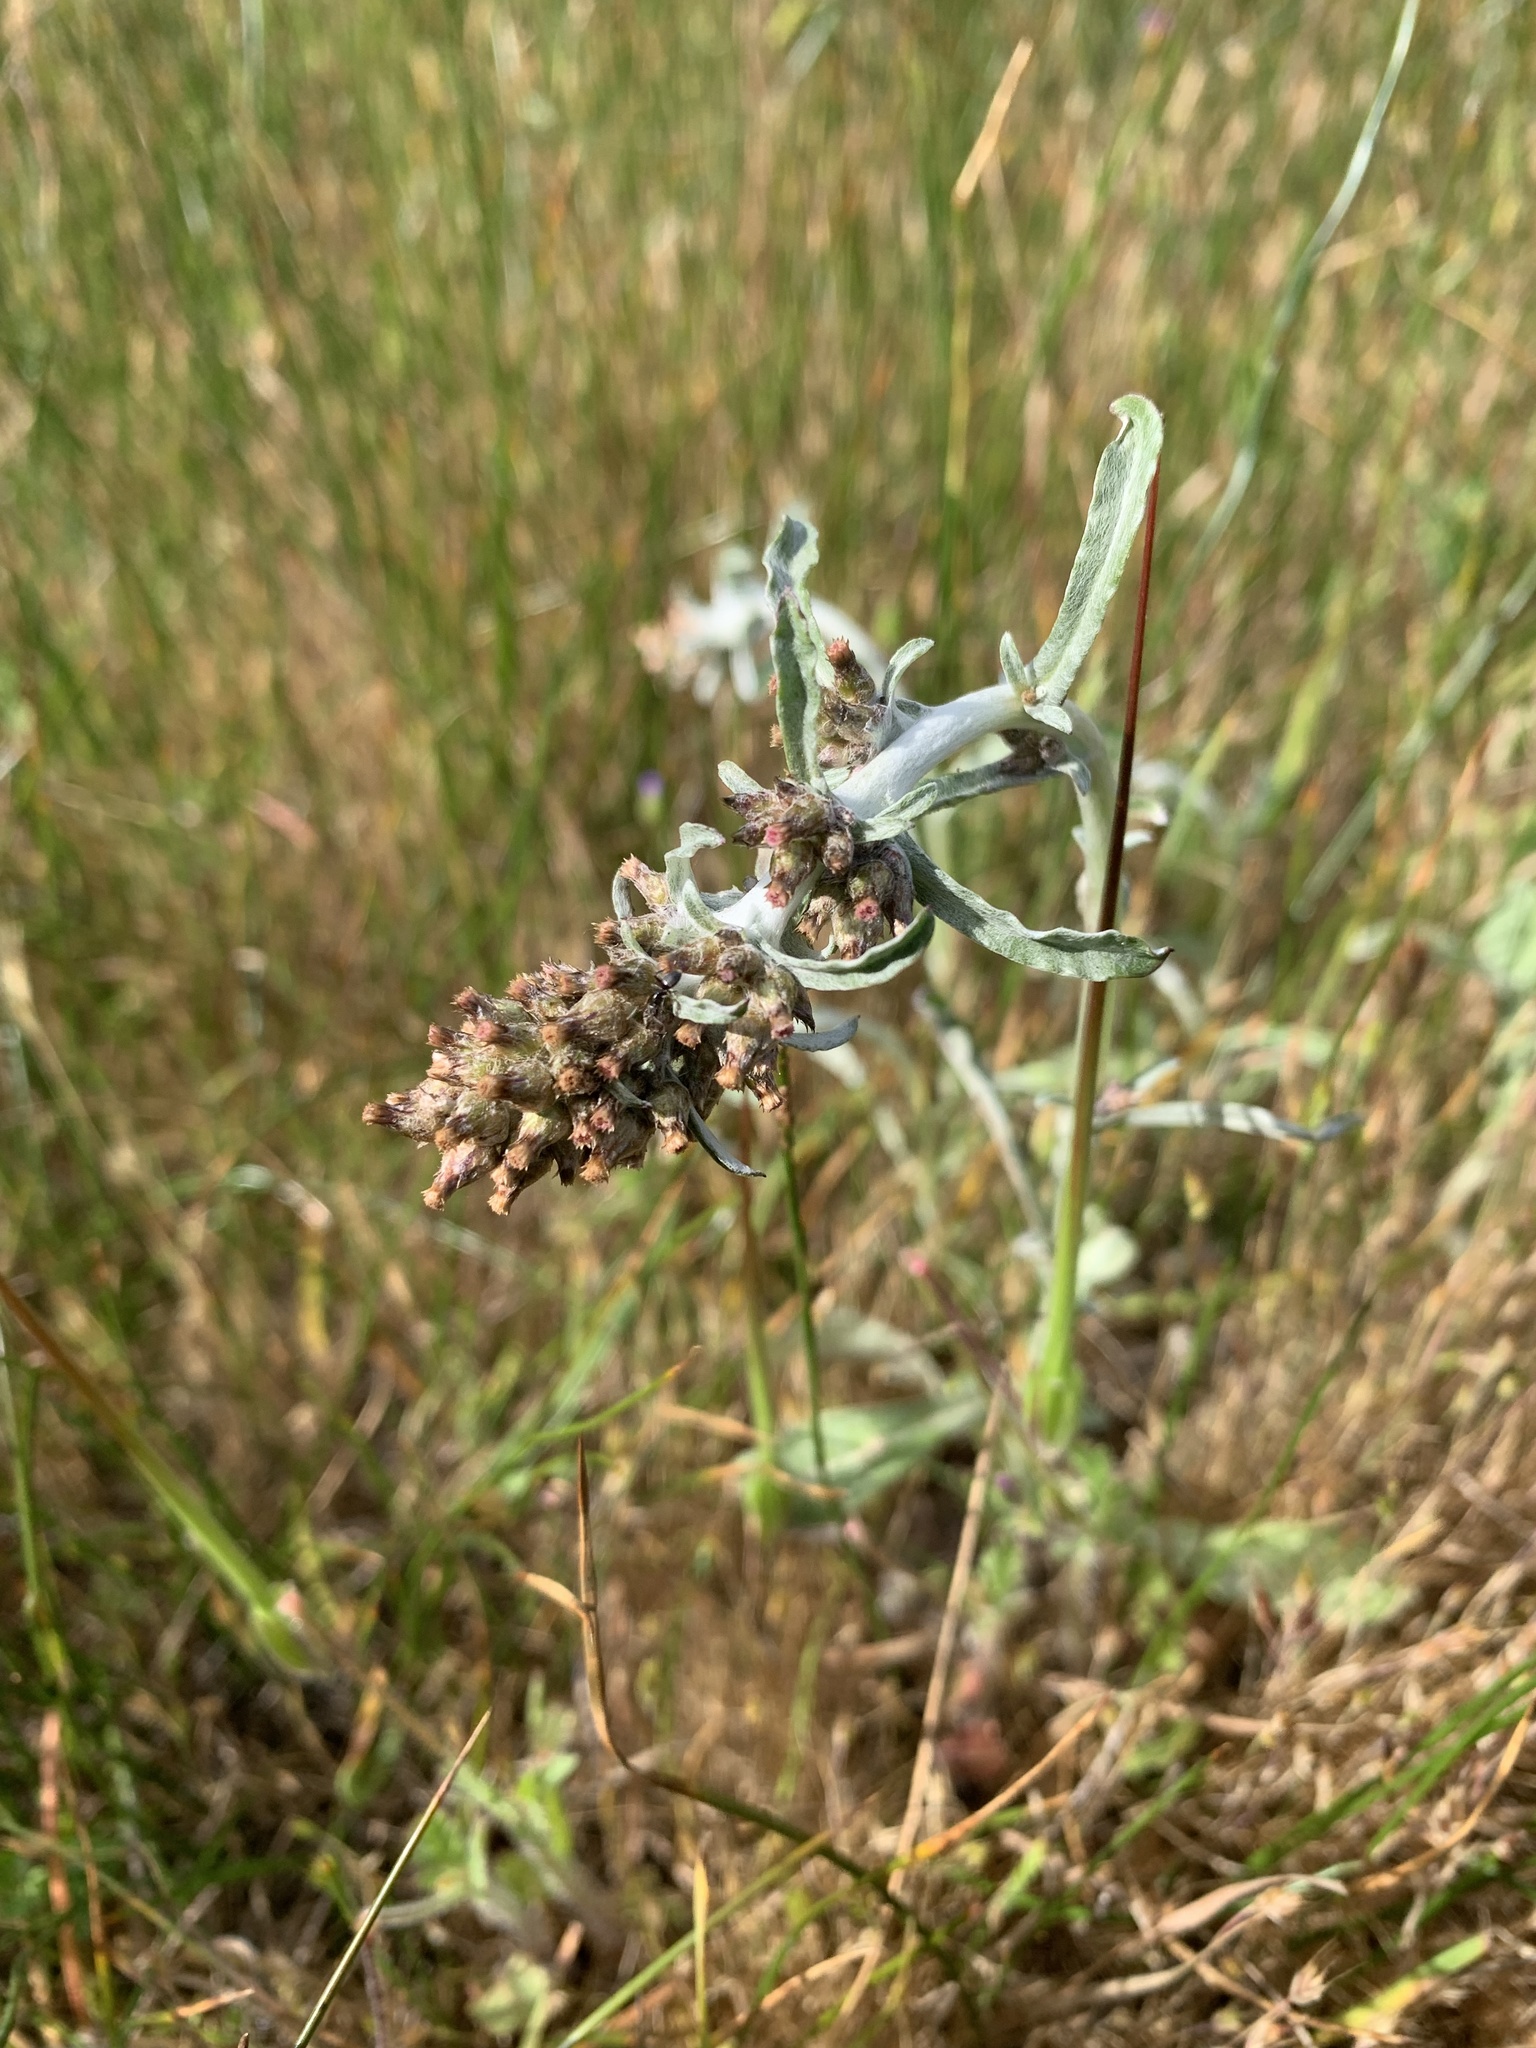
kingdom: Plantae
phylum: Tracheophyta
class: Magnoliopsida
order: Asterales
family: Asteraceae
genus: Gamochaeta
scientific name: Gamochaeta ustulata
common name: Pacific cudweed
